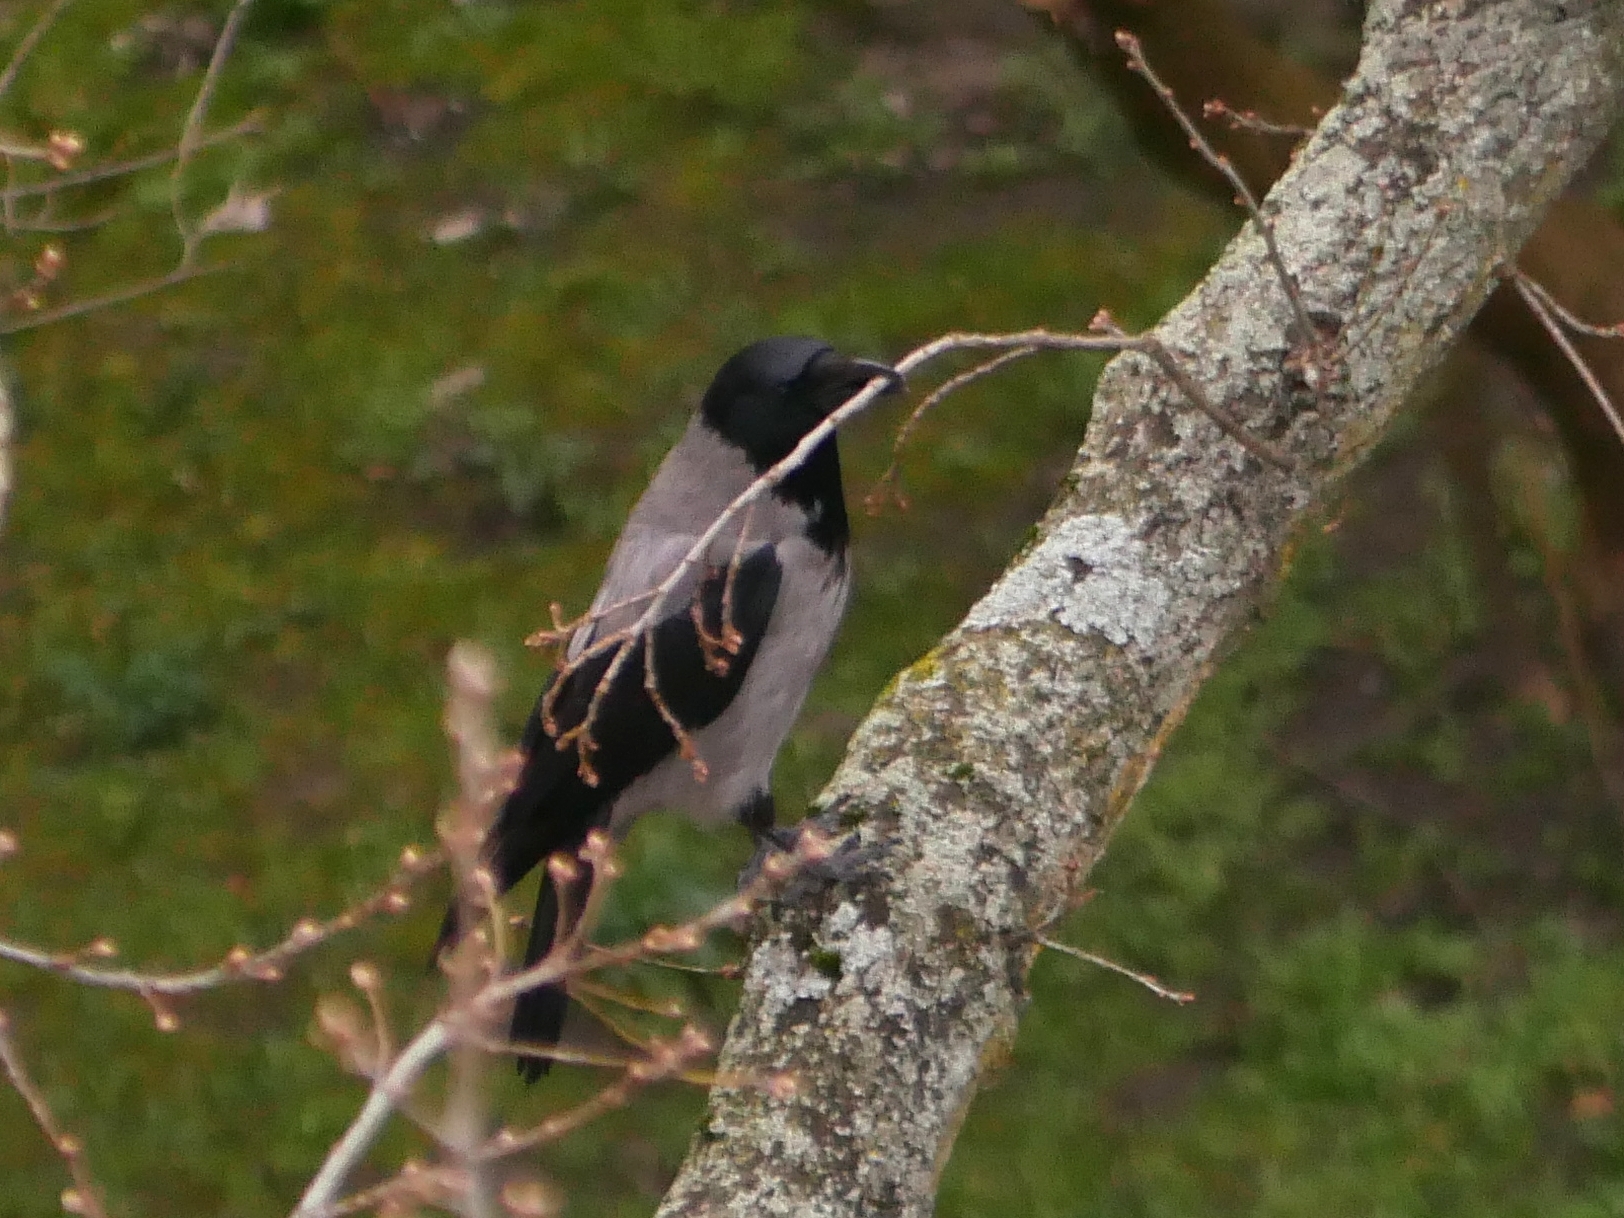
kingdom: Animalia
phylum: Chordata
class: Aves
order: Passeriformes
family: Corvidae
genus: Corvus
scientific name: Corvus cornix
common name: Hooded crow
